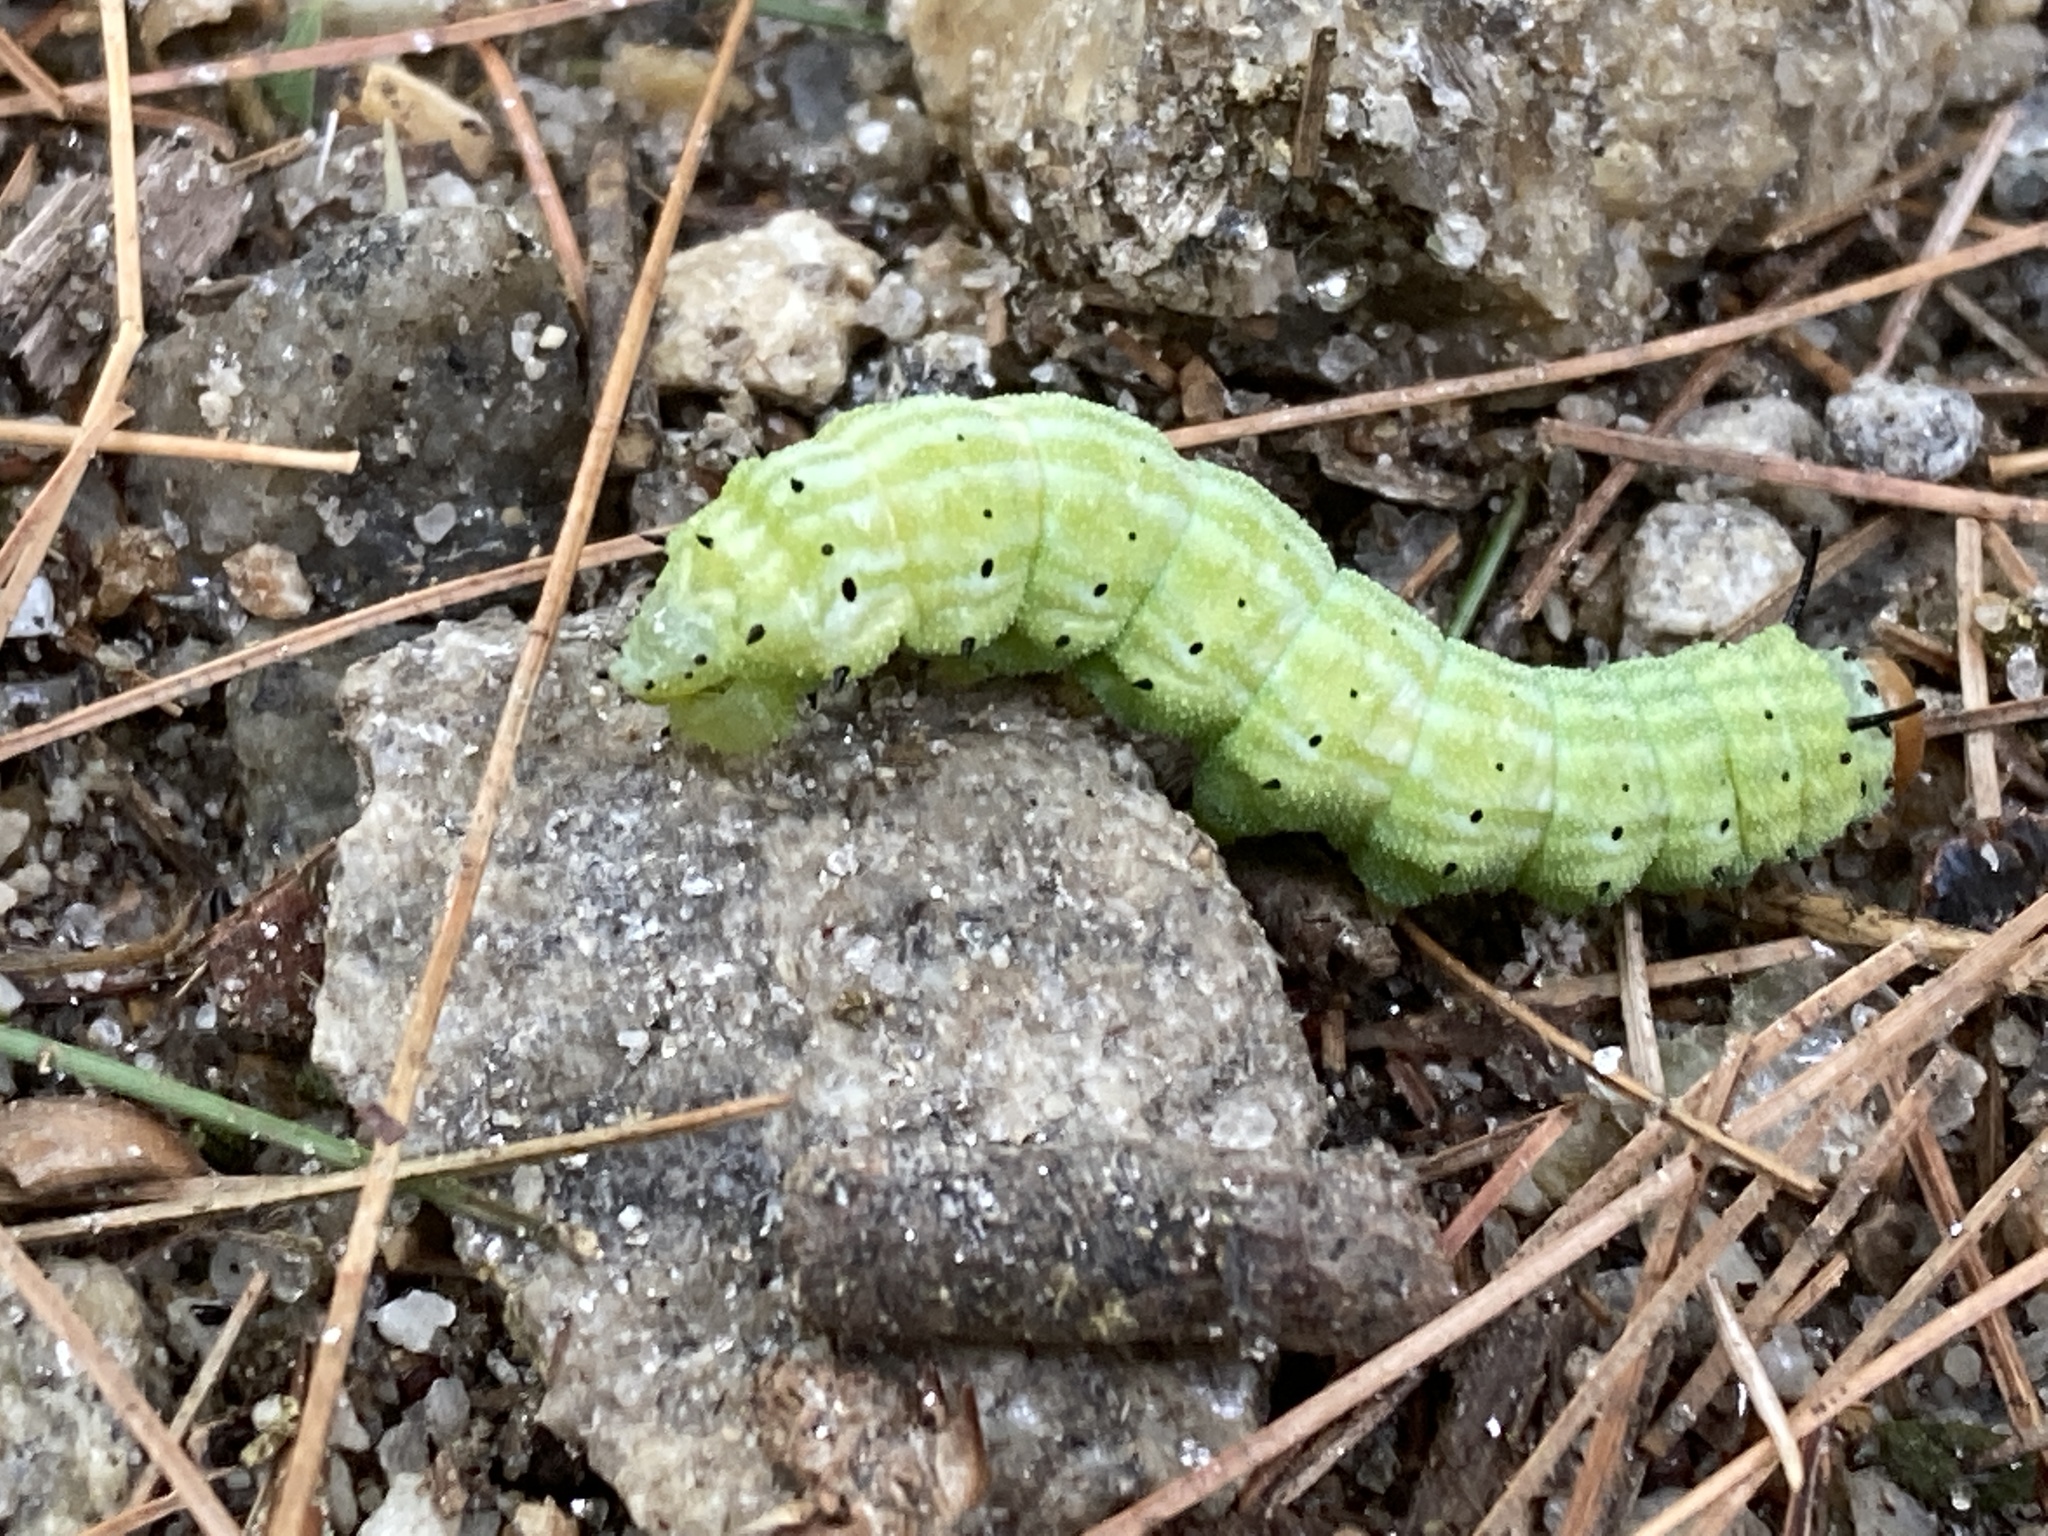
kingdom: Animalia
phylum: Arthropoda
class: Insecta
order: Lepidoptera
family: Saturniidae
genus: Dryocampa
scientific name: Dryocampa rubicunda
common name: Rosy maple moth
